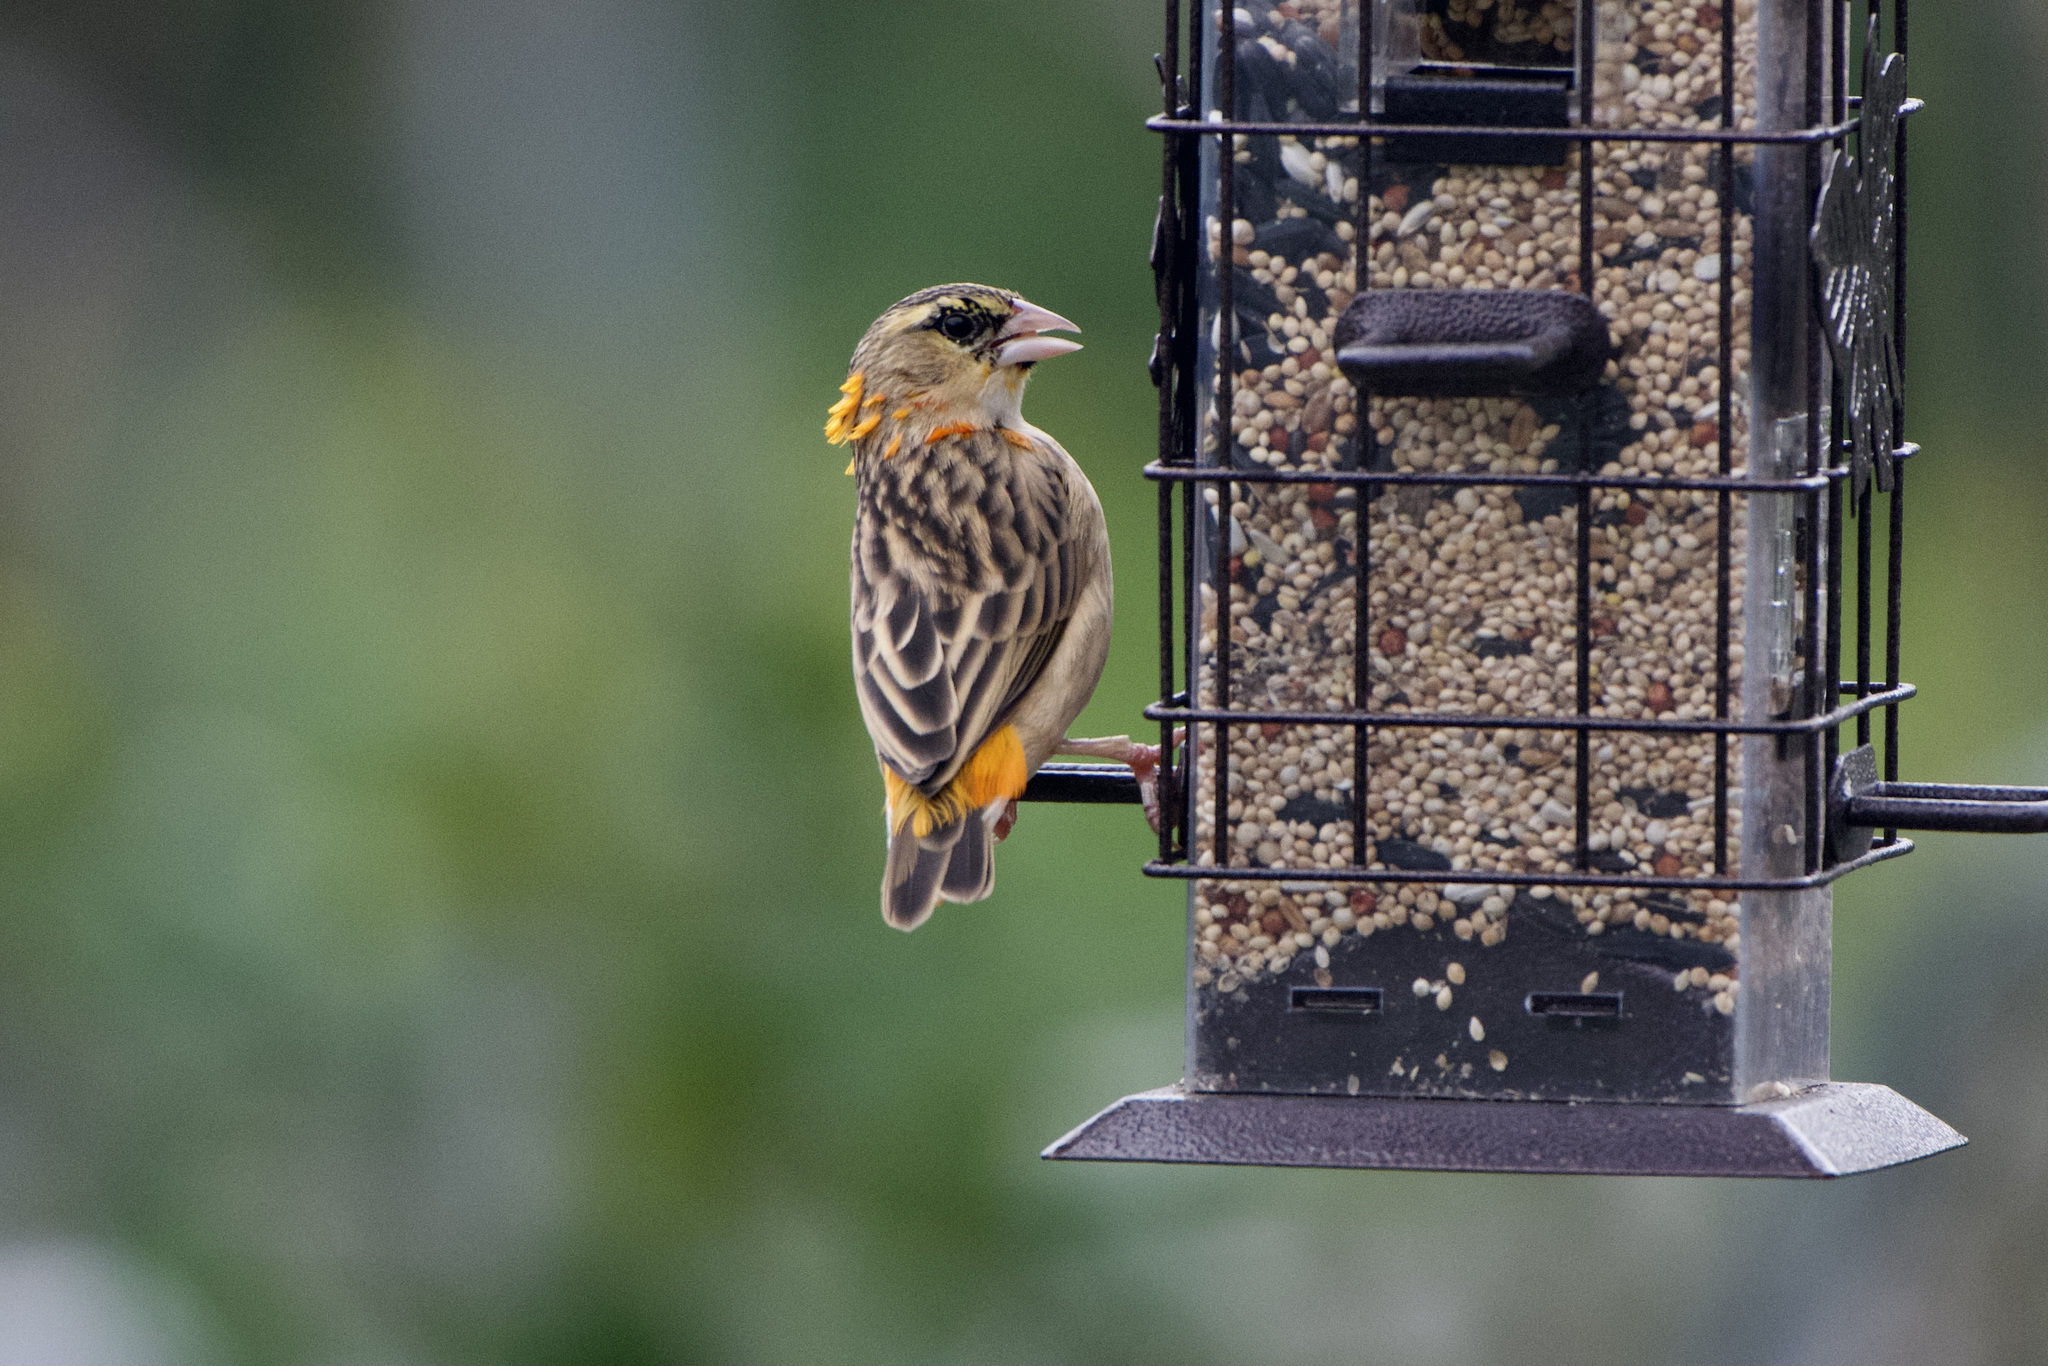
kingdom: Animalia
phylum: Chordata
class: Aves
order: Passeriformes
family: Ploceidae
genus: Euplectes
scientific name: Euplectes franciscanus
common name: Northern red bishop
